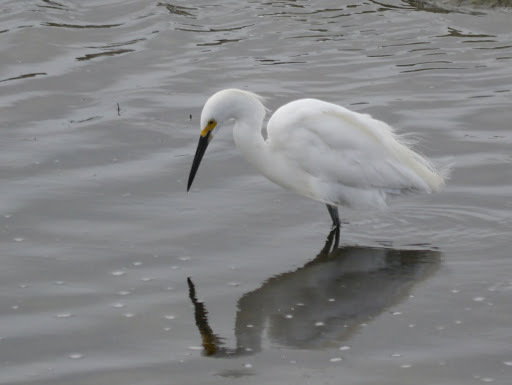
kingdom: Animalia
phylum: Chordata
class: Aves
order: Pelecaniformes
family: Ardeidae
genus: Egretta
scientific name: Egretta thula
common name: Snowy egret
